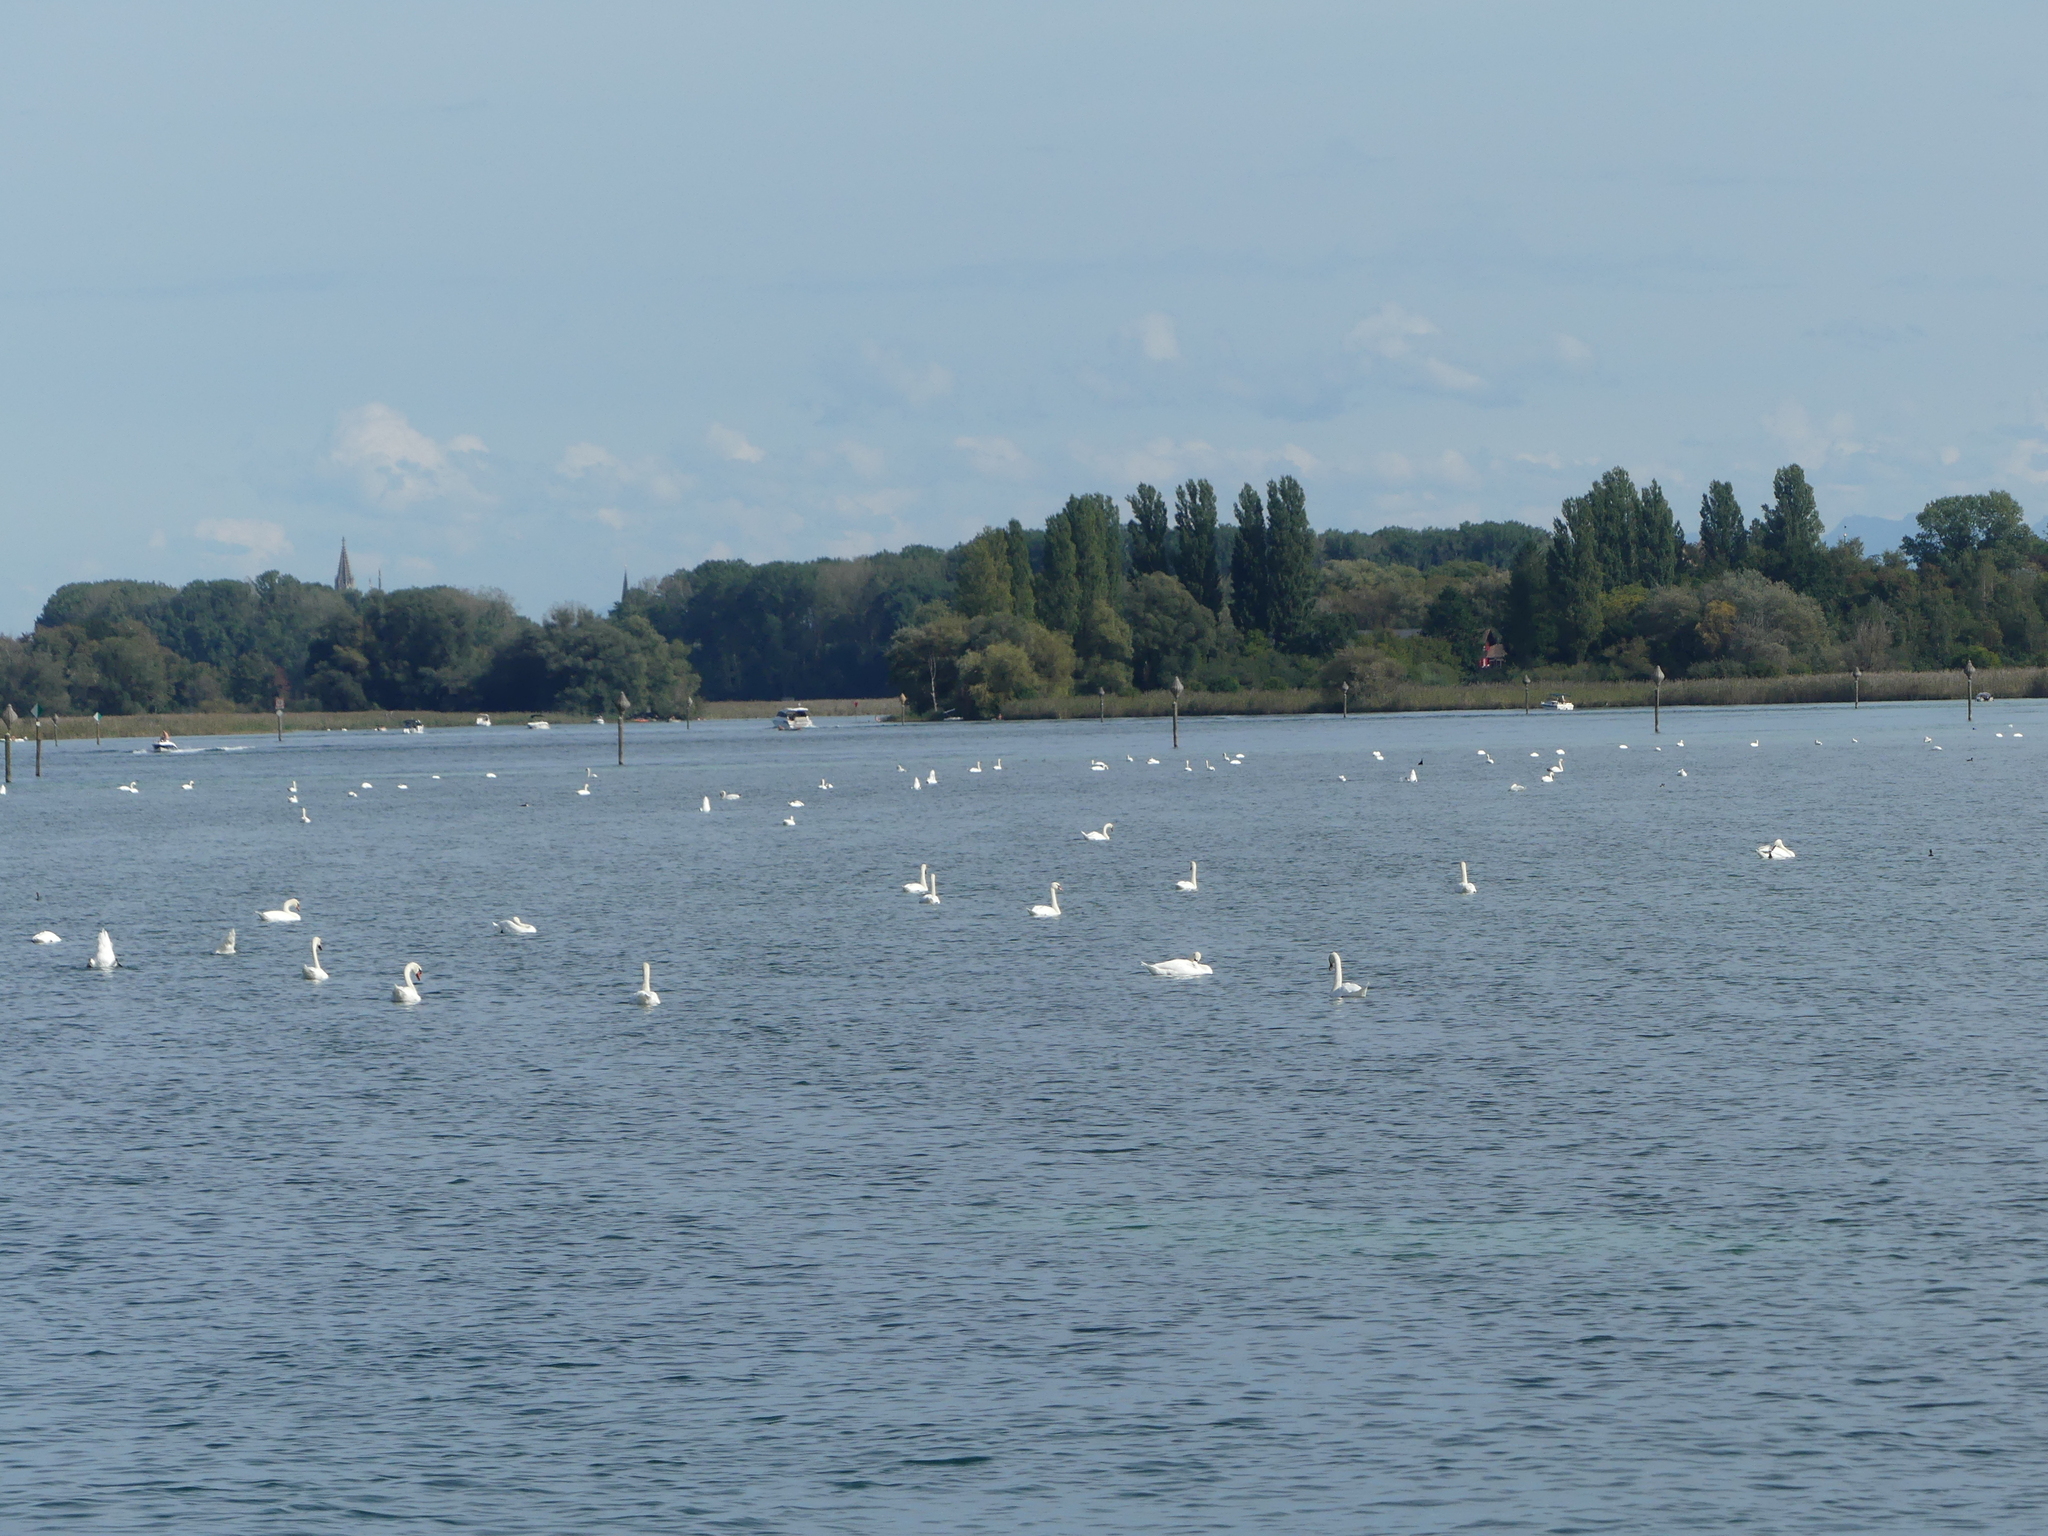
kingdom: Animalia
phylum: Chordata
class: Aves
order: Anseriformes
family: Anatidae
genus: Cygnus
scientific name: Cygnus olor
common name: Mute swan
